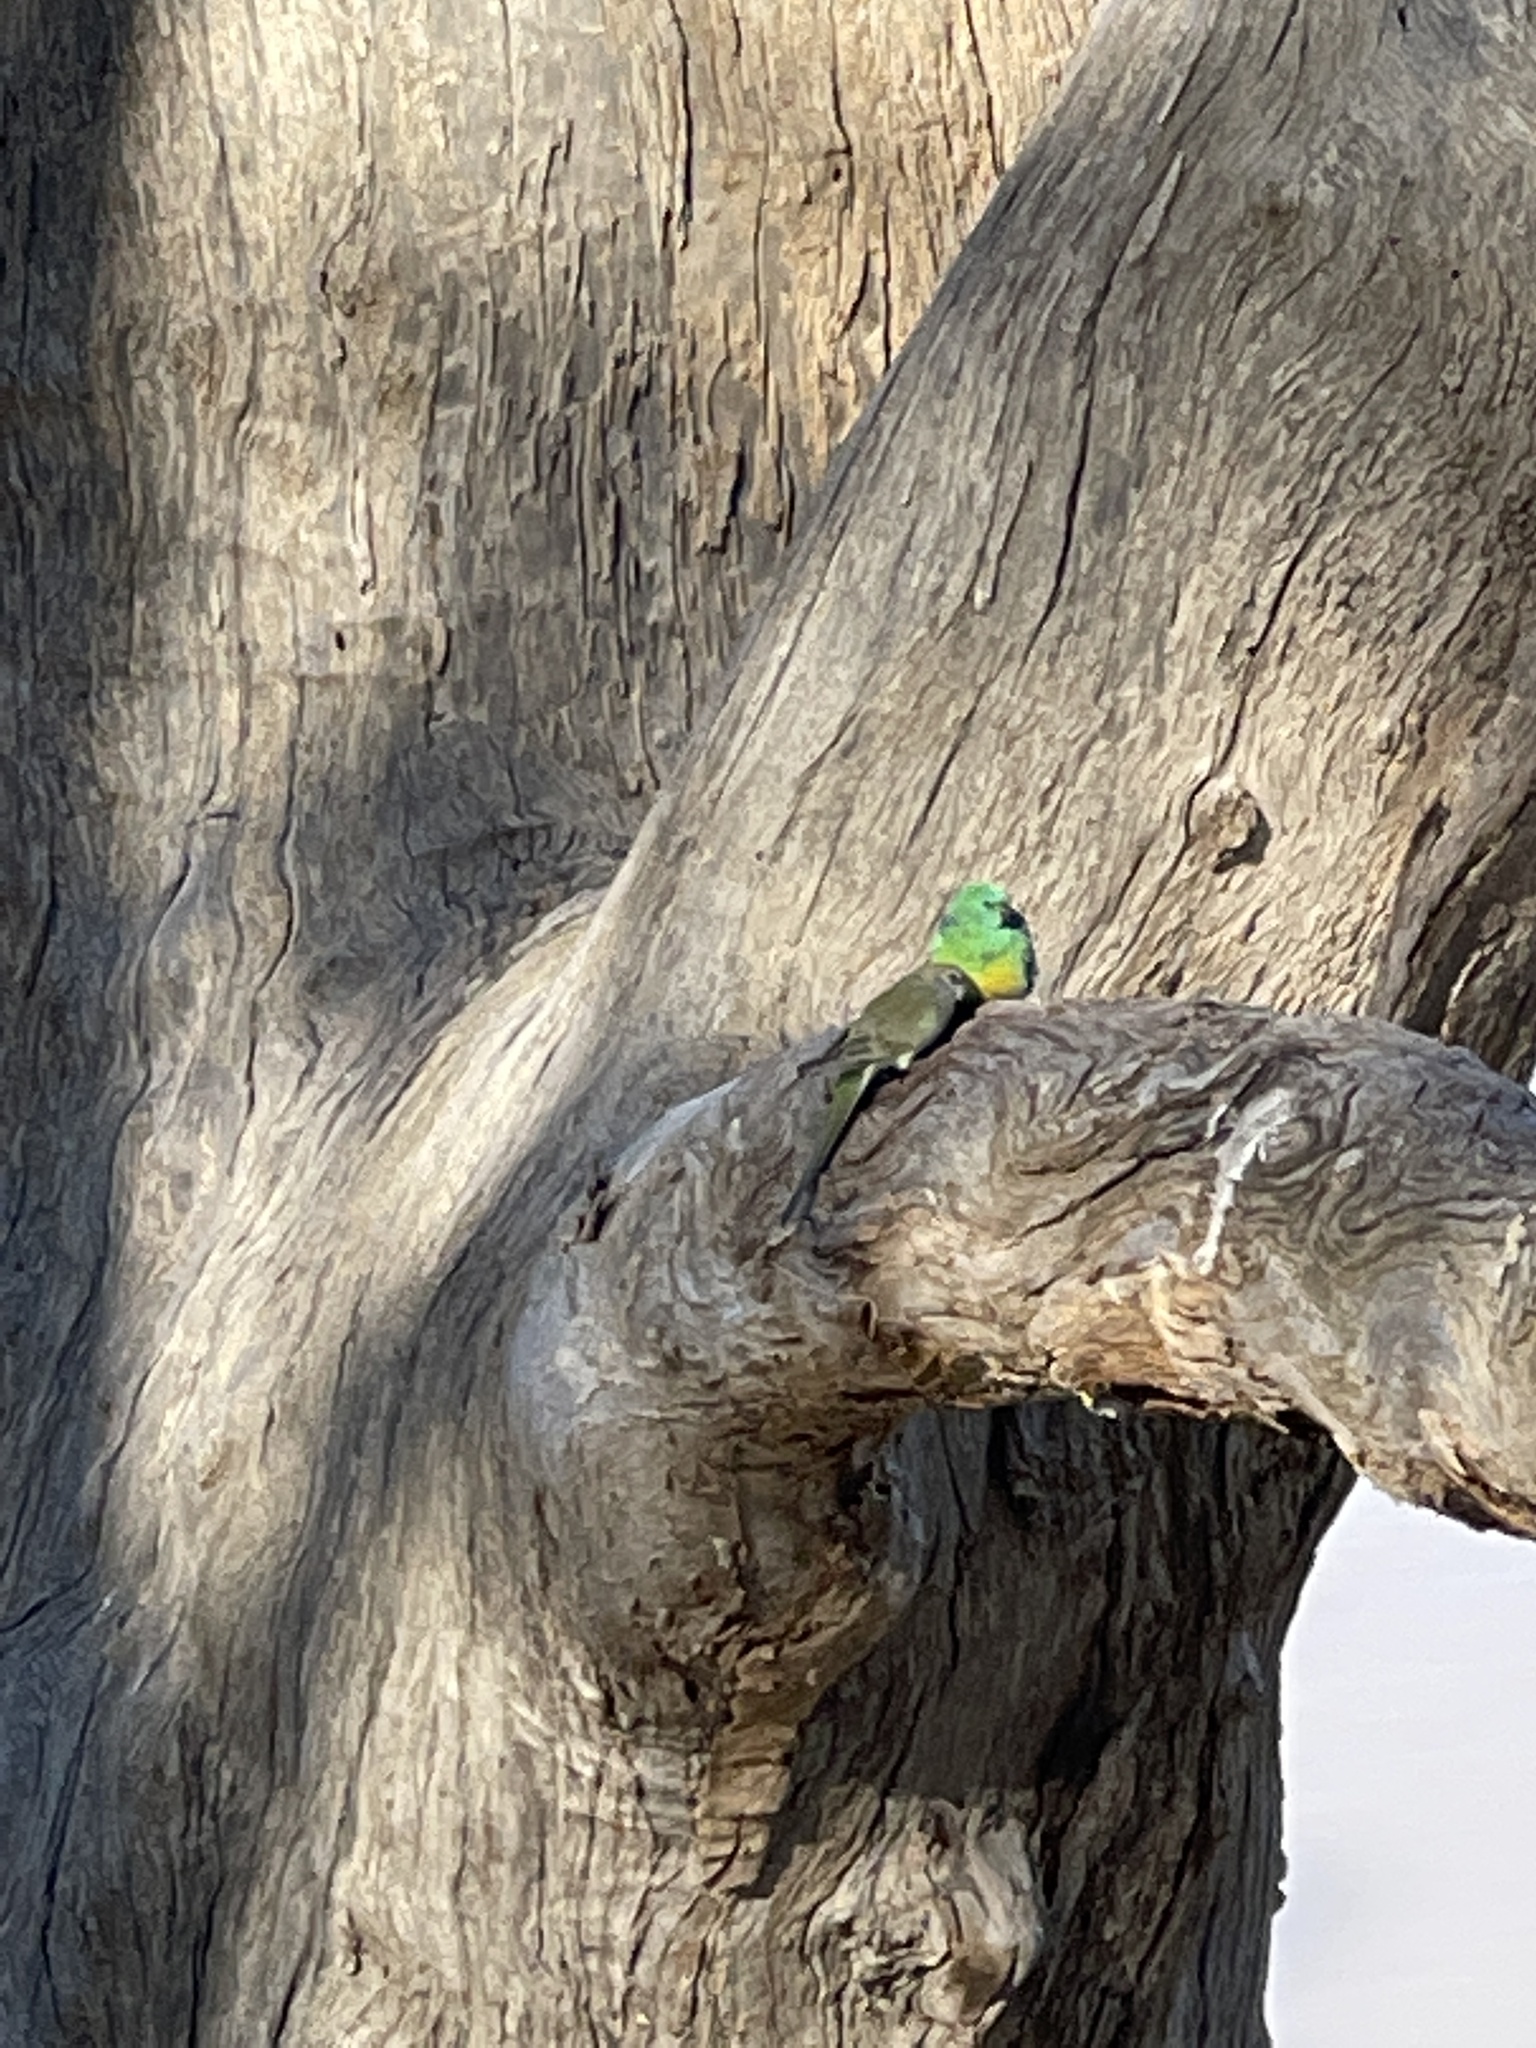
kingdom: Animalia
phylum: Chordata
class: Aves
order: Psittaciformes
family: Psittacidae
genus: Psephotus
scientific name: Psephotus haematonotus
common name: Red-rumped parrot
